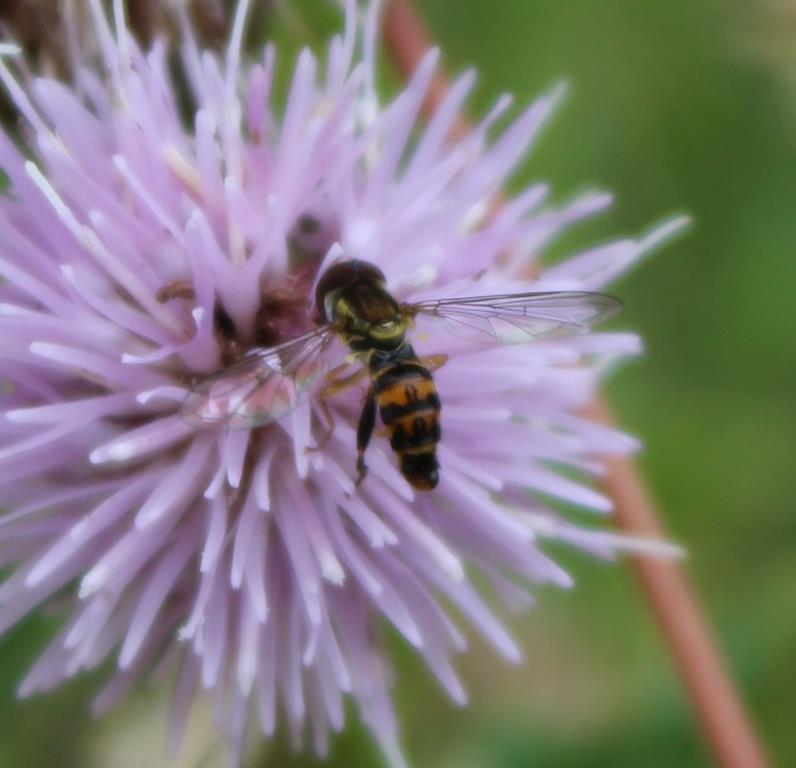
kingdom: Animalia
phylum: Arthropoda
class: Insecta
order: Diptera
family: Syrphidae
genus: Toxomerus
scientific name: Toxomerus occidentalis
